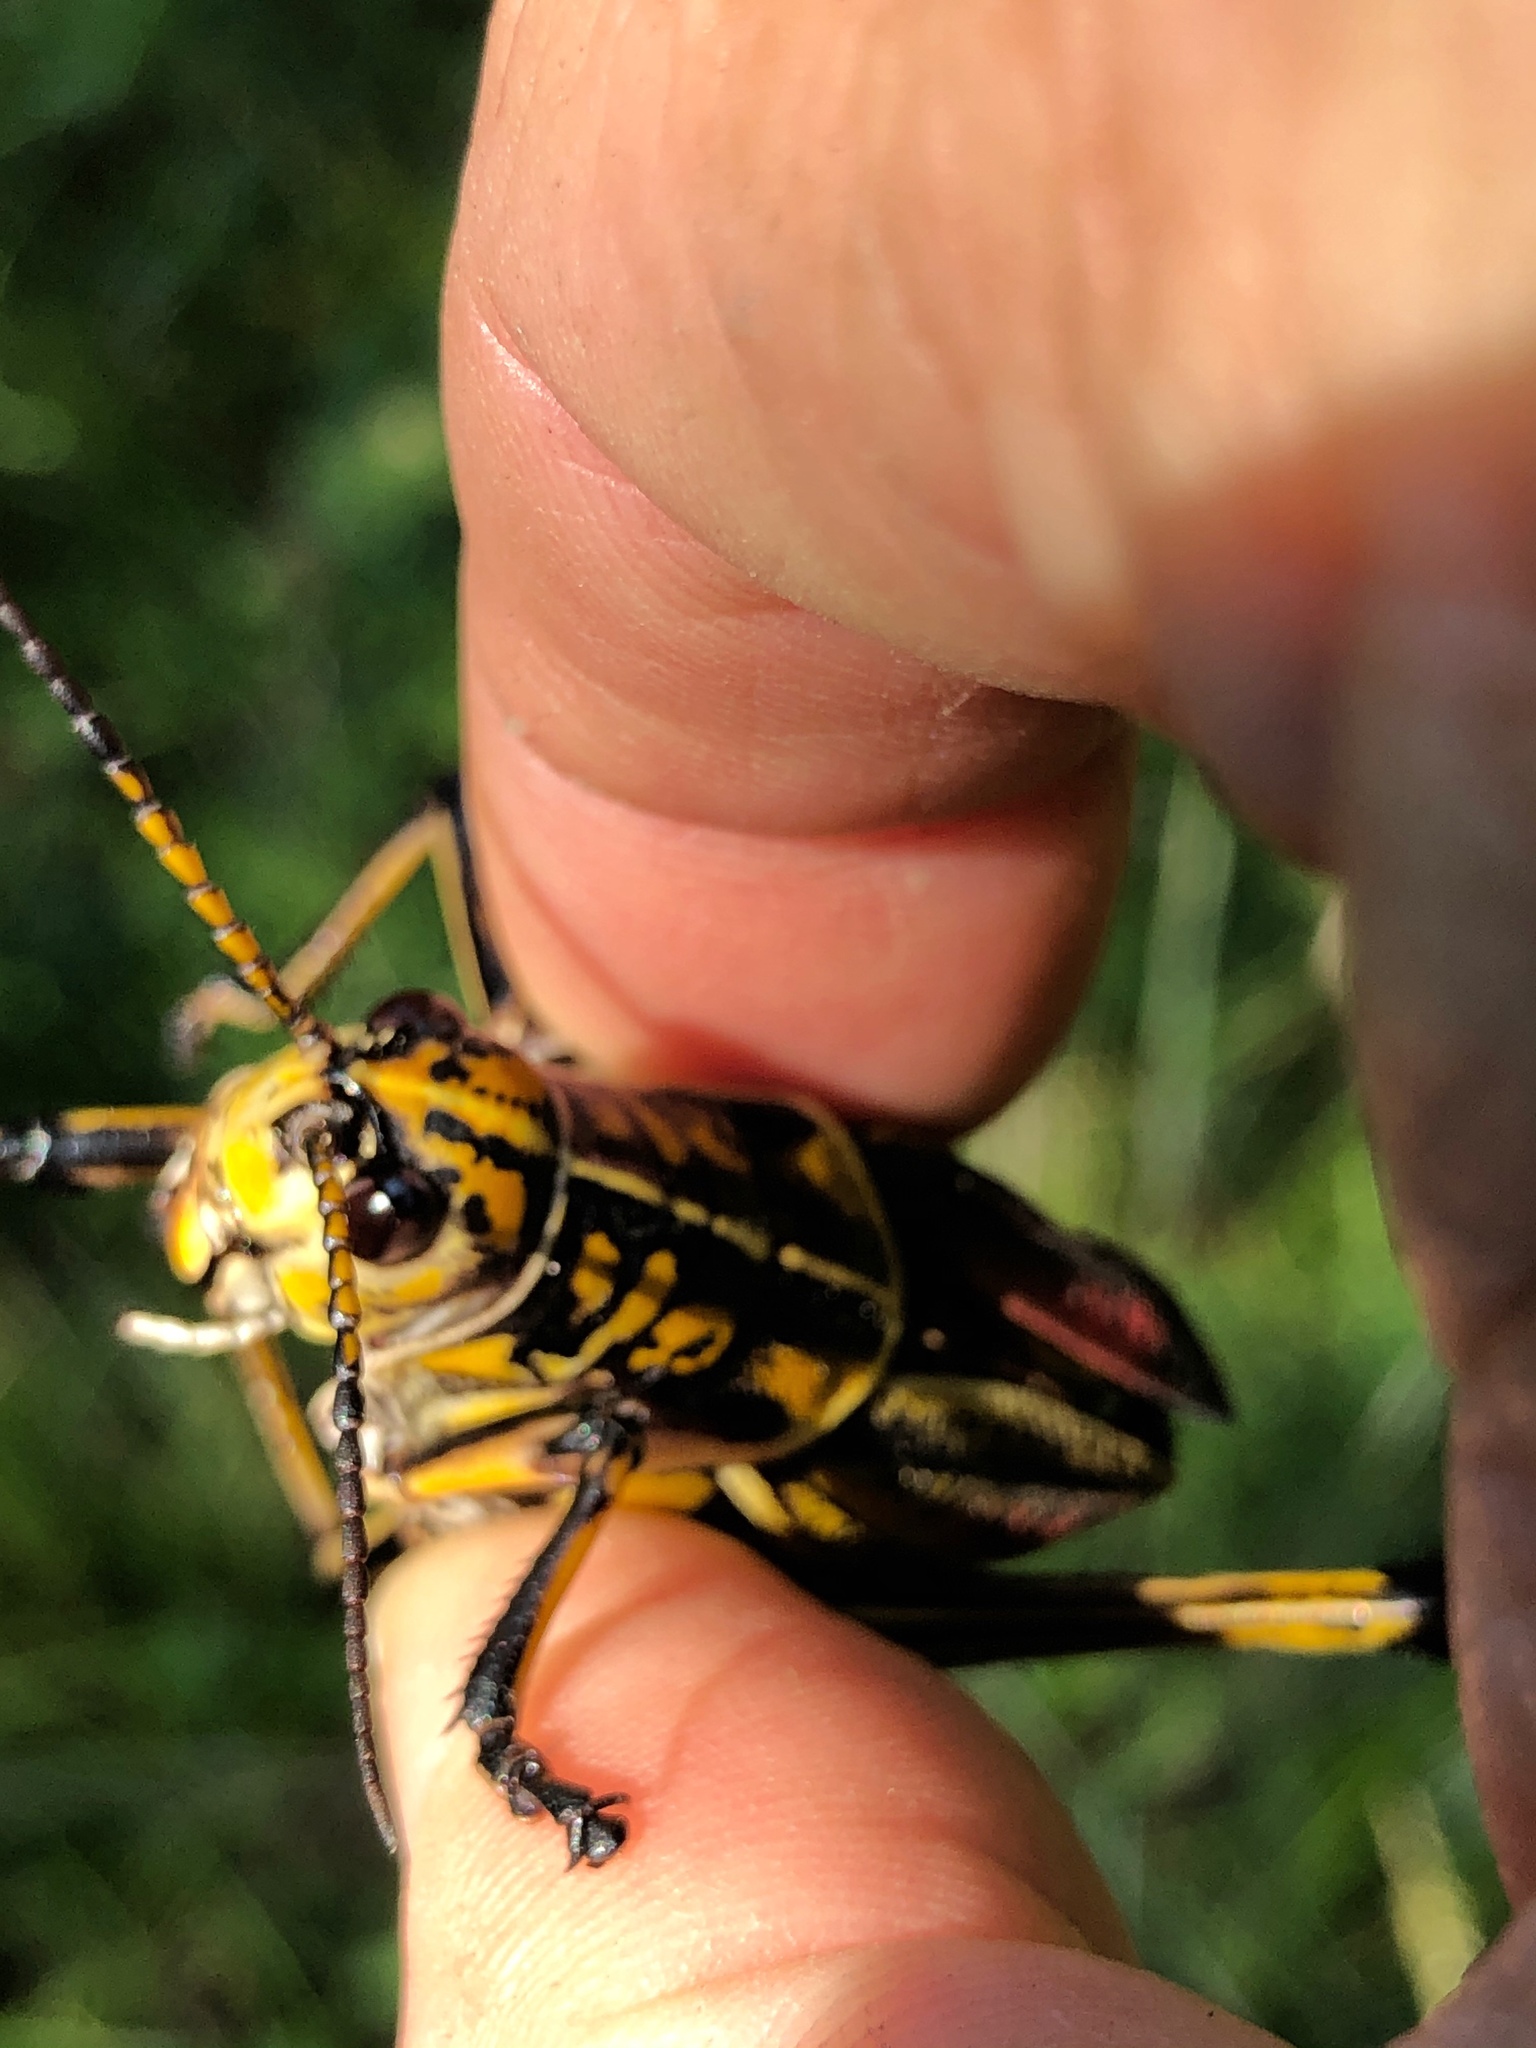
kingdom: Animalia
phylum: Arthropoda
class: Insecta
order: Orthoptera
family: Romaleidae
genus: Romalea
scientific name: Romalea microptera
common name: Eastern lubber grasshopper
